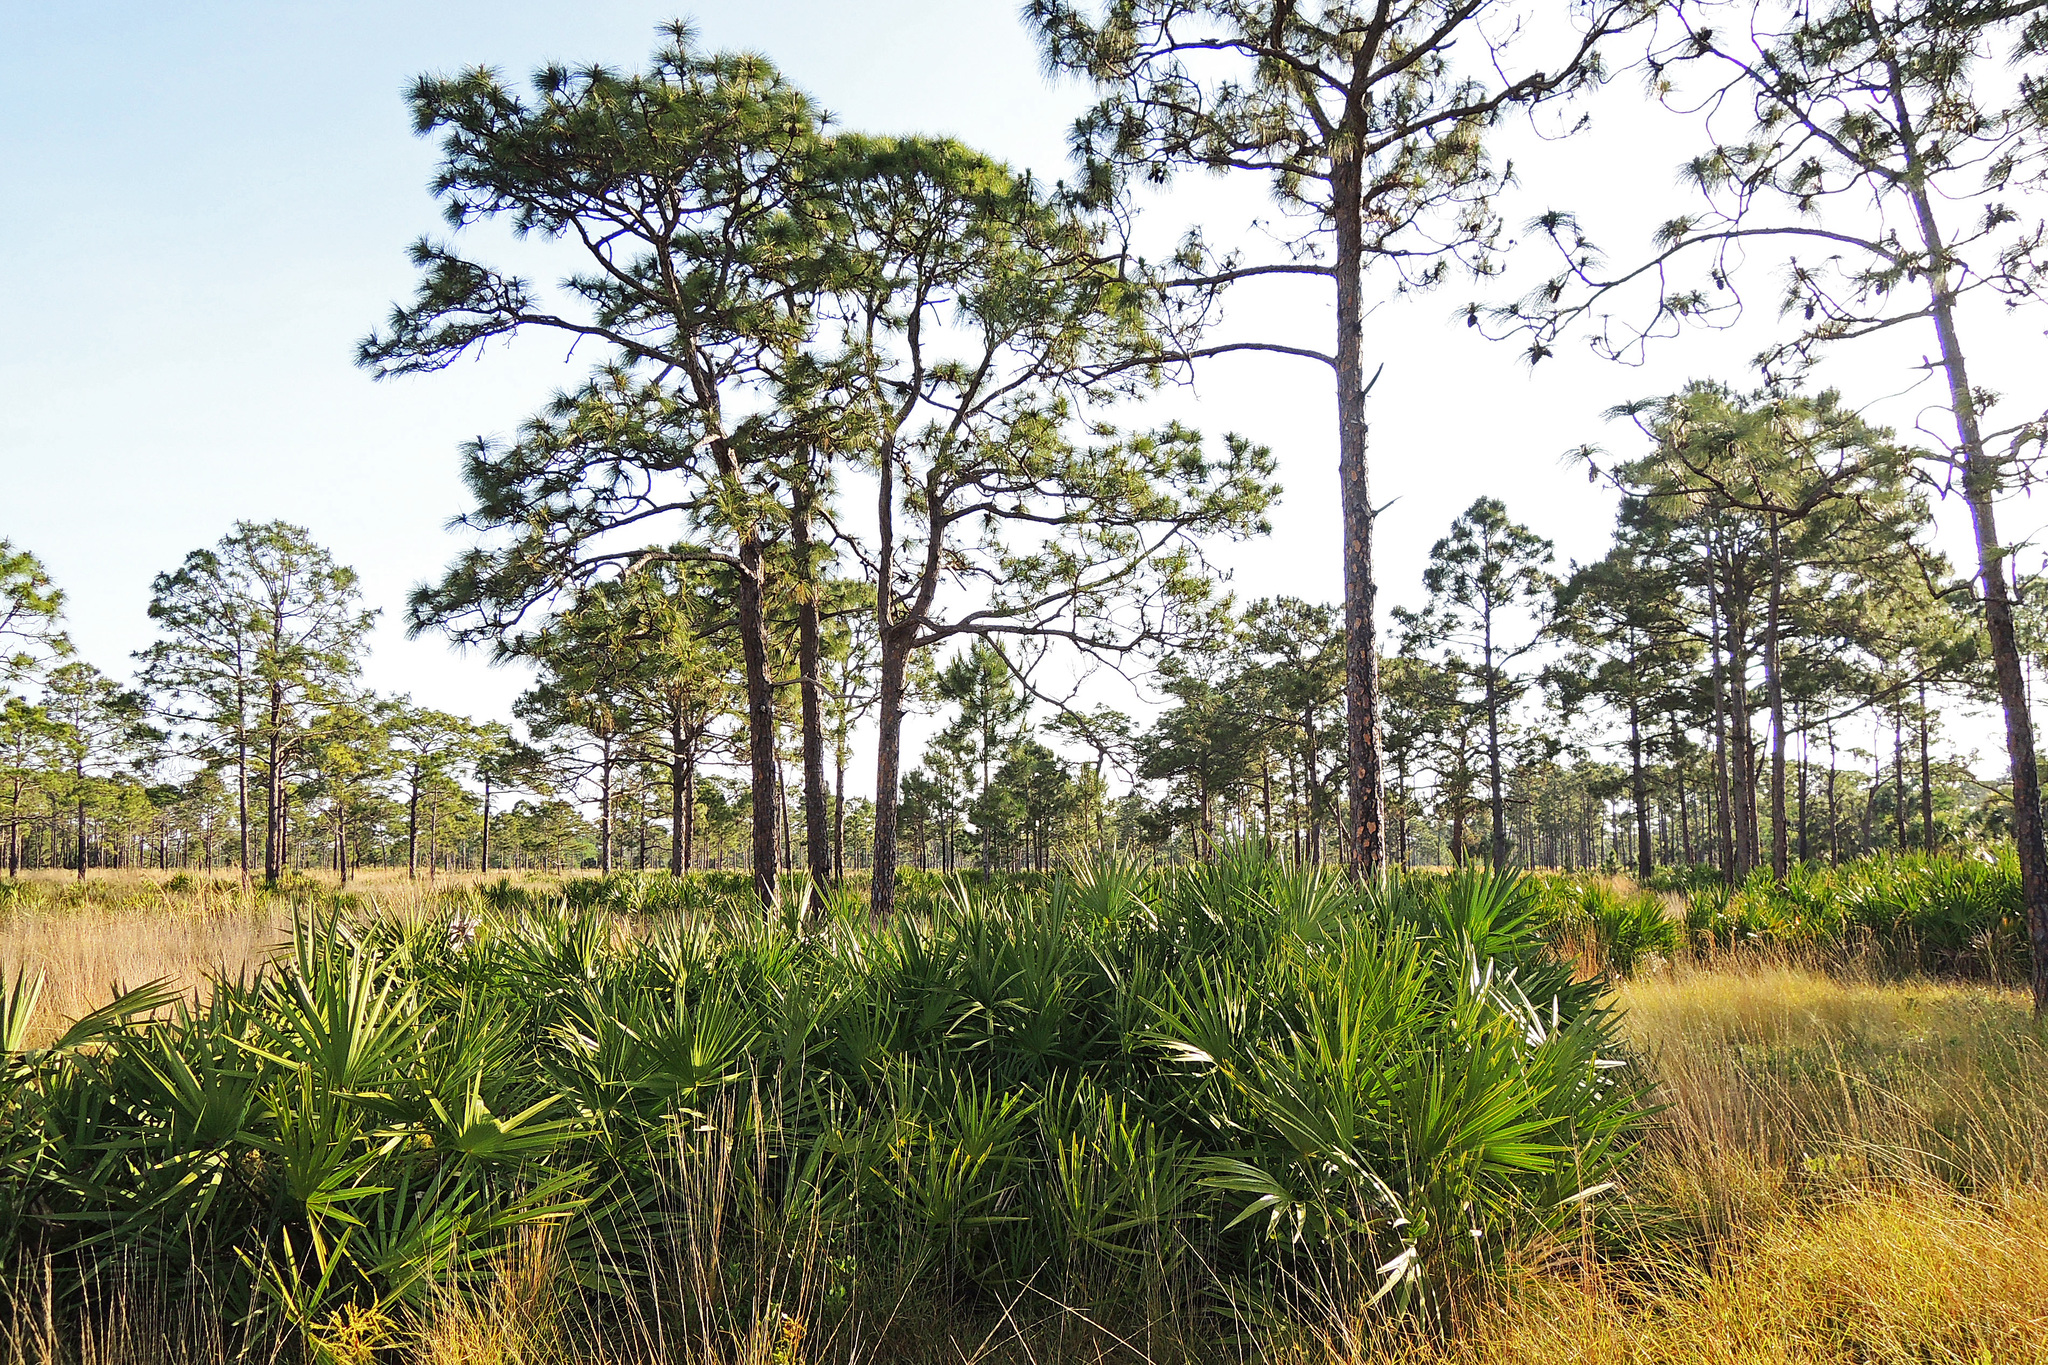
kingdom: Plantae
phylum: Tracheophyta
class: Pinopsida
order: Pinales
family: Pinaceae
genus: Pinus
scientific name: Pinus palustris
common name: Longleaf pine
